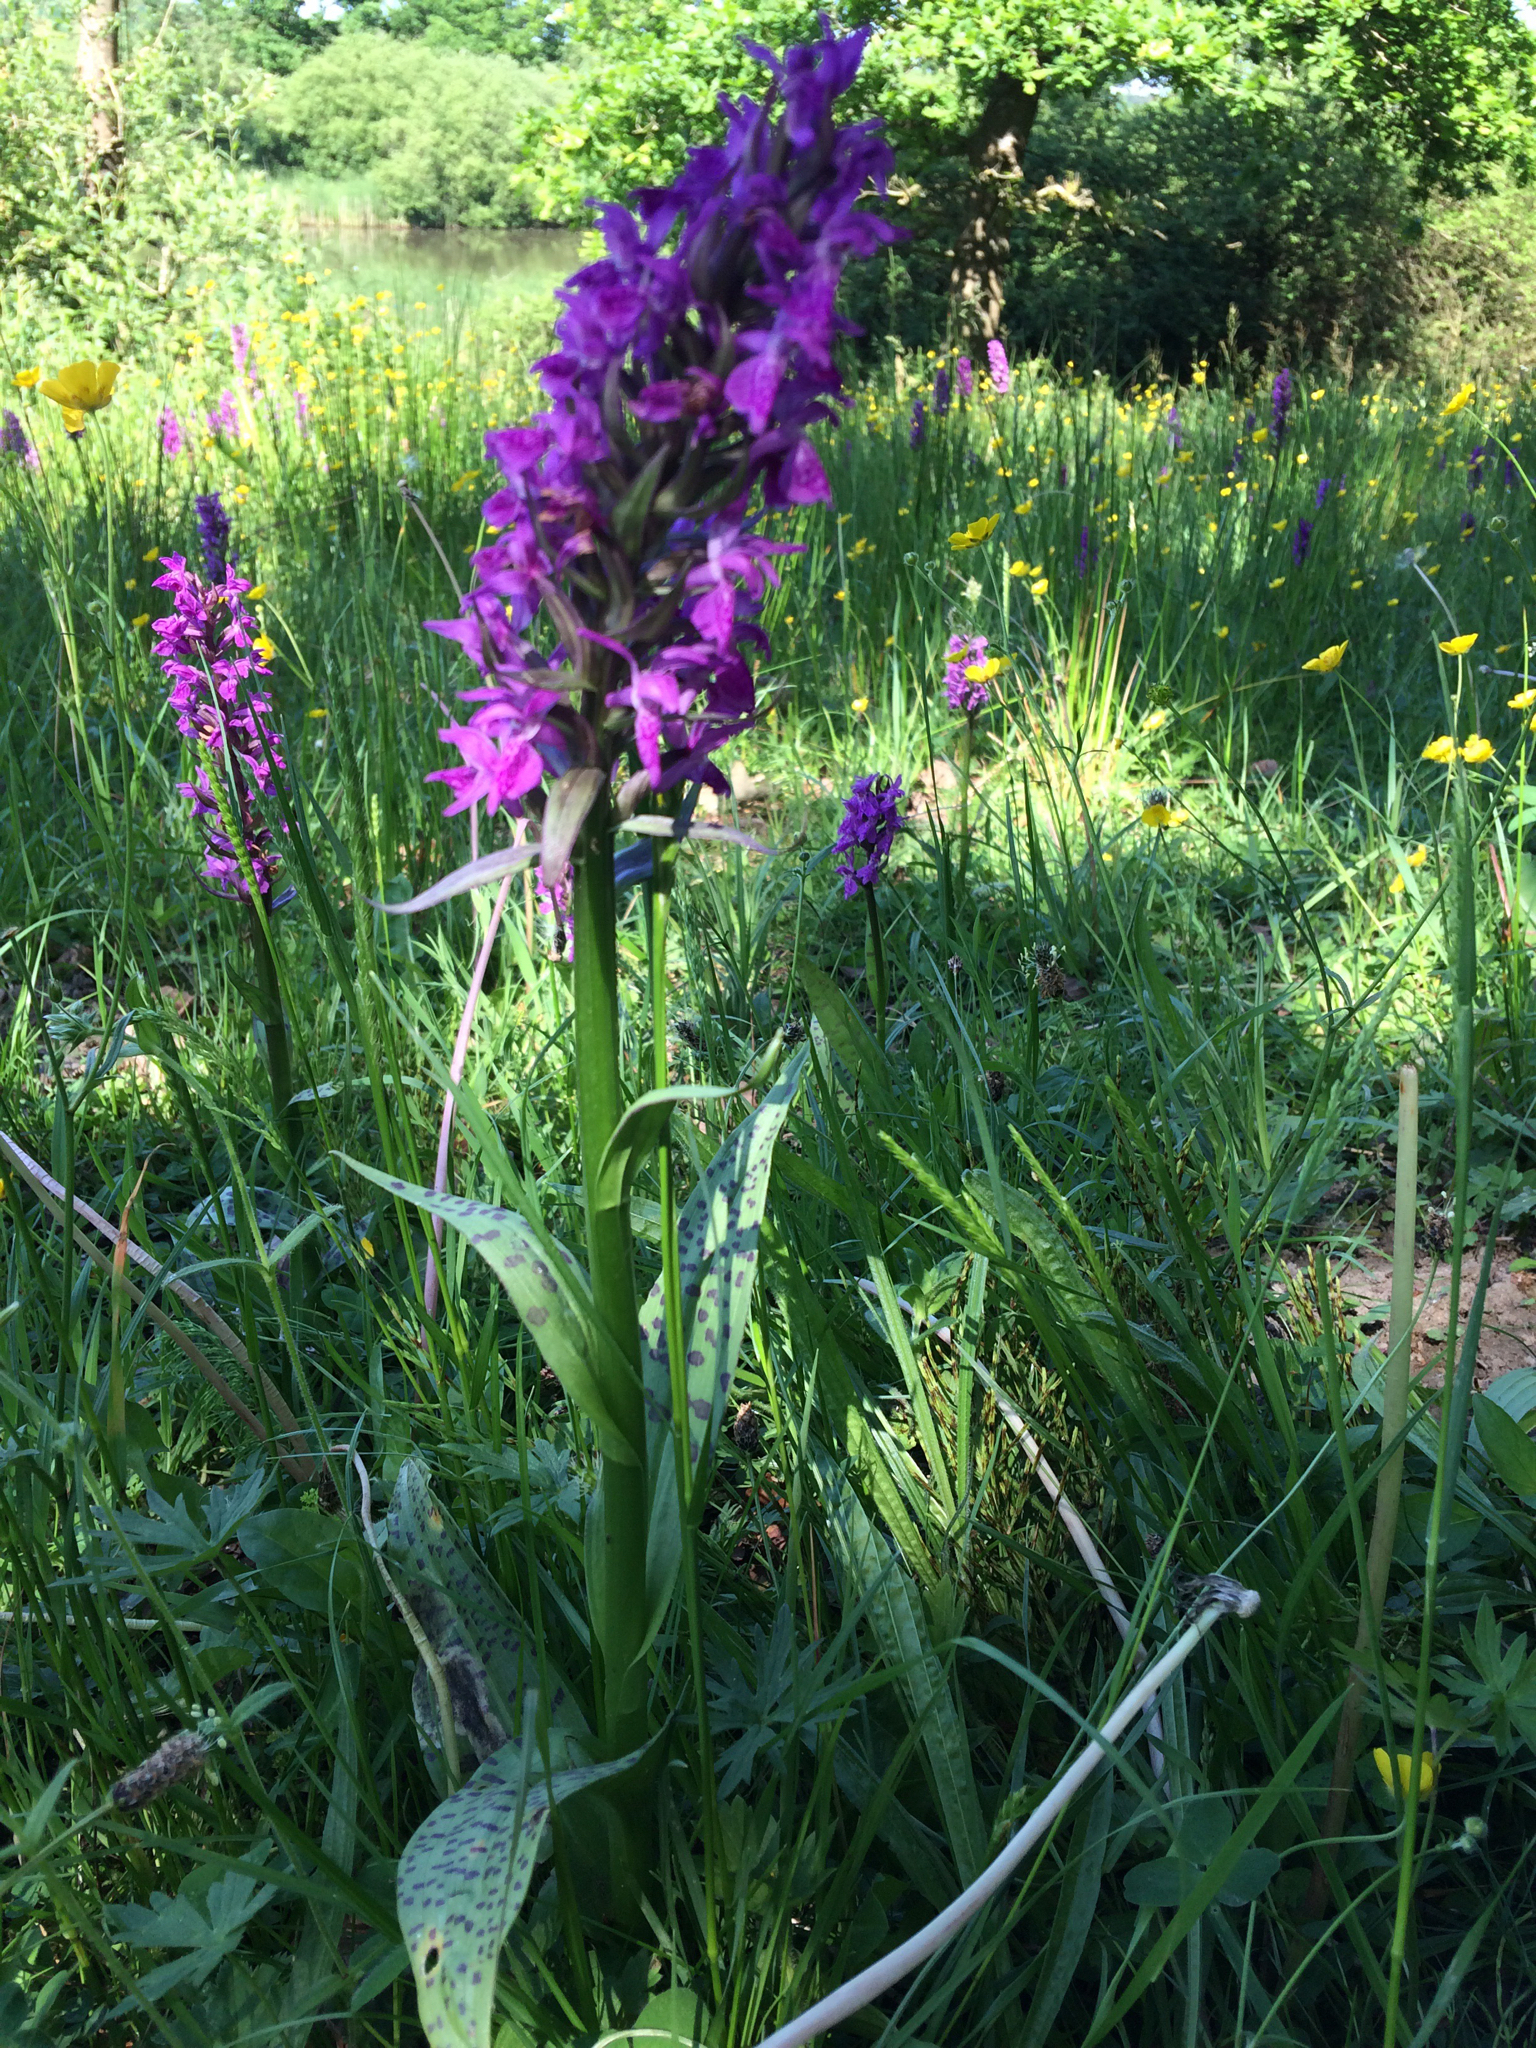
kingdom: Plantae
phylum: Tracheophyta
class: Liliopsida
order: Asparagales
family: Orchidaceae
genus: Dactylorhiza
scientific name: Dactylorhiza majalis
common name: Marsh orchid
